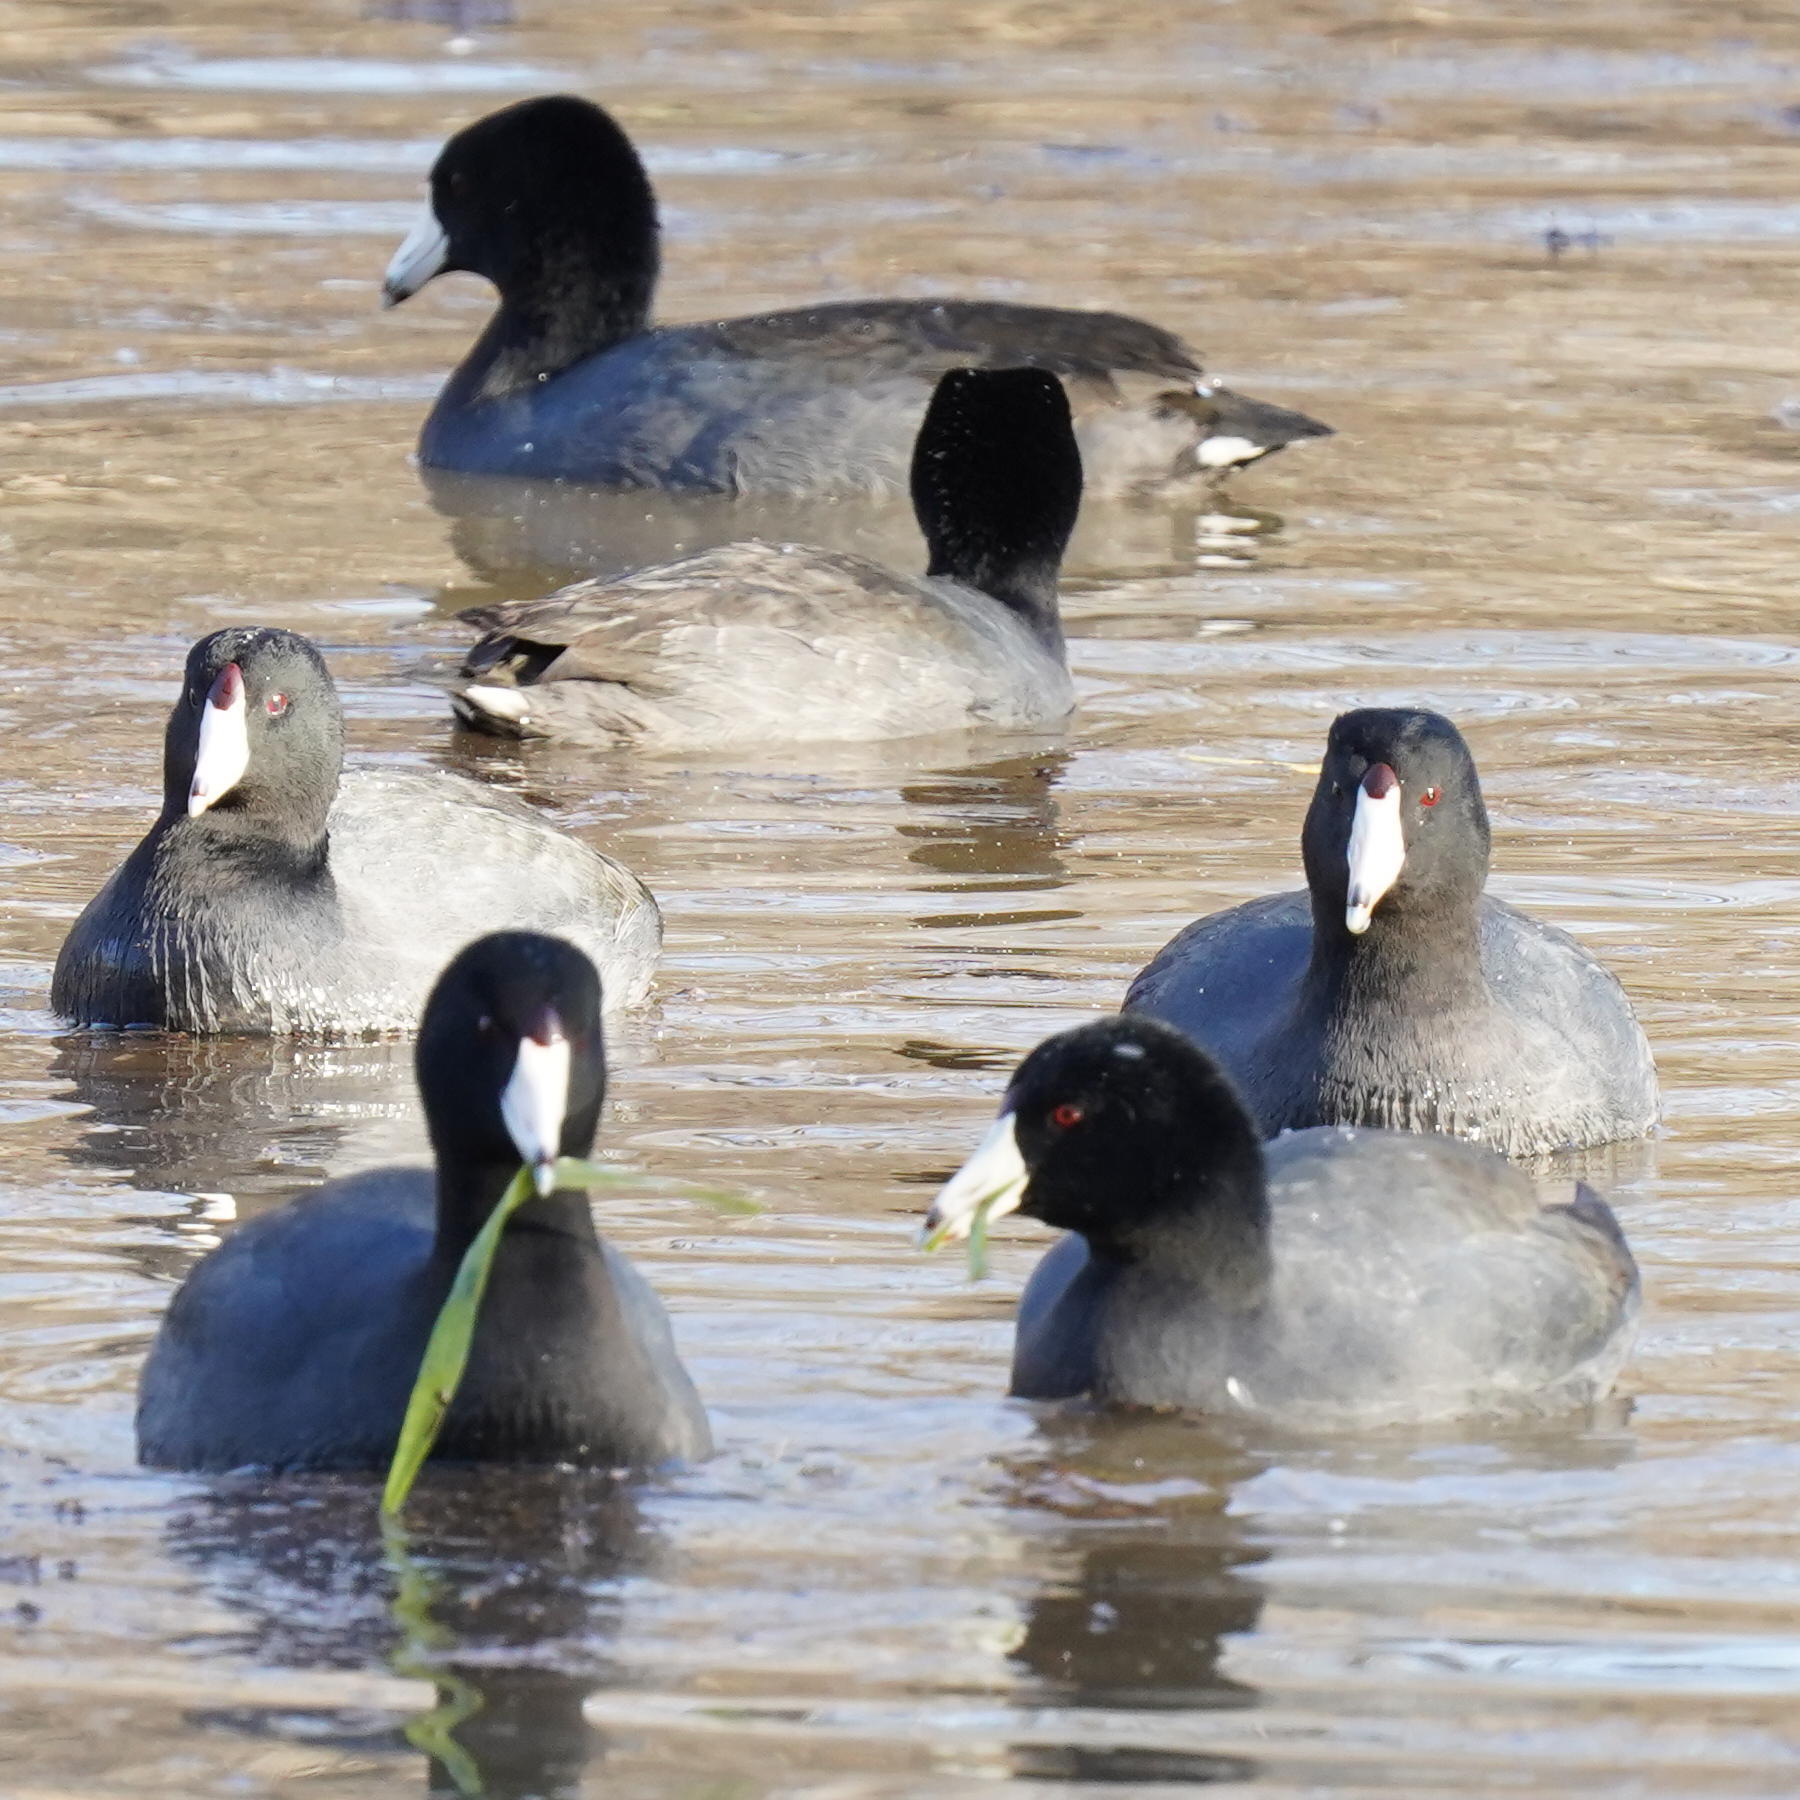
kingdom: Animalia
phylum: Chordata
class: Aves
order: Gruiformes
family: Rallidae
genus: Fulica
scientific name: Fulica americana
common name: American coot
